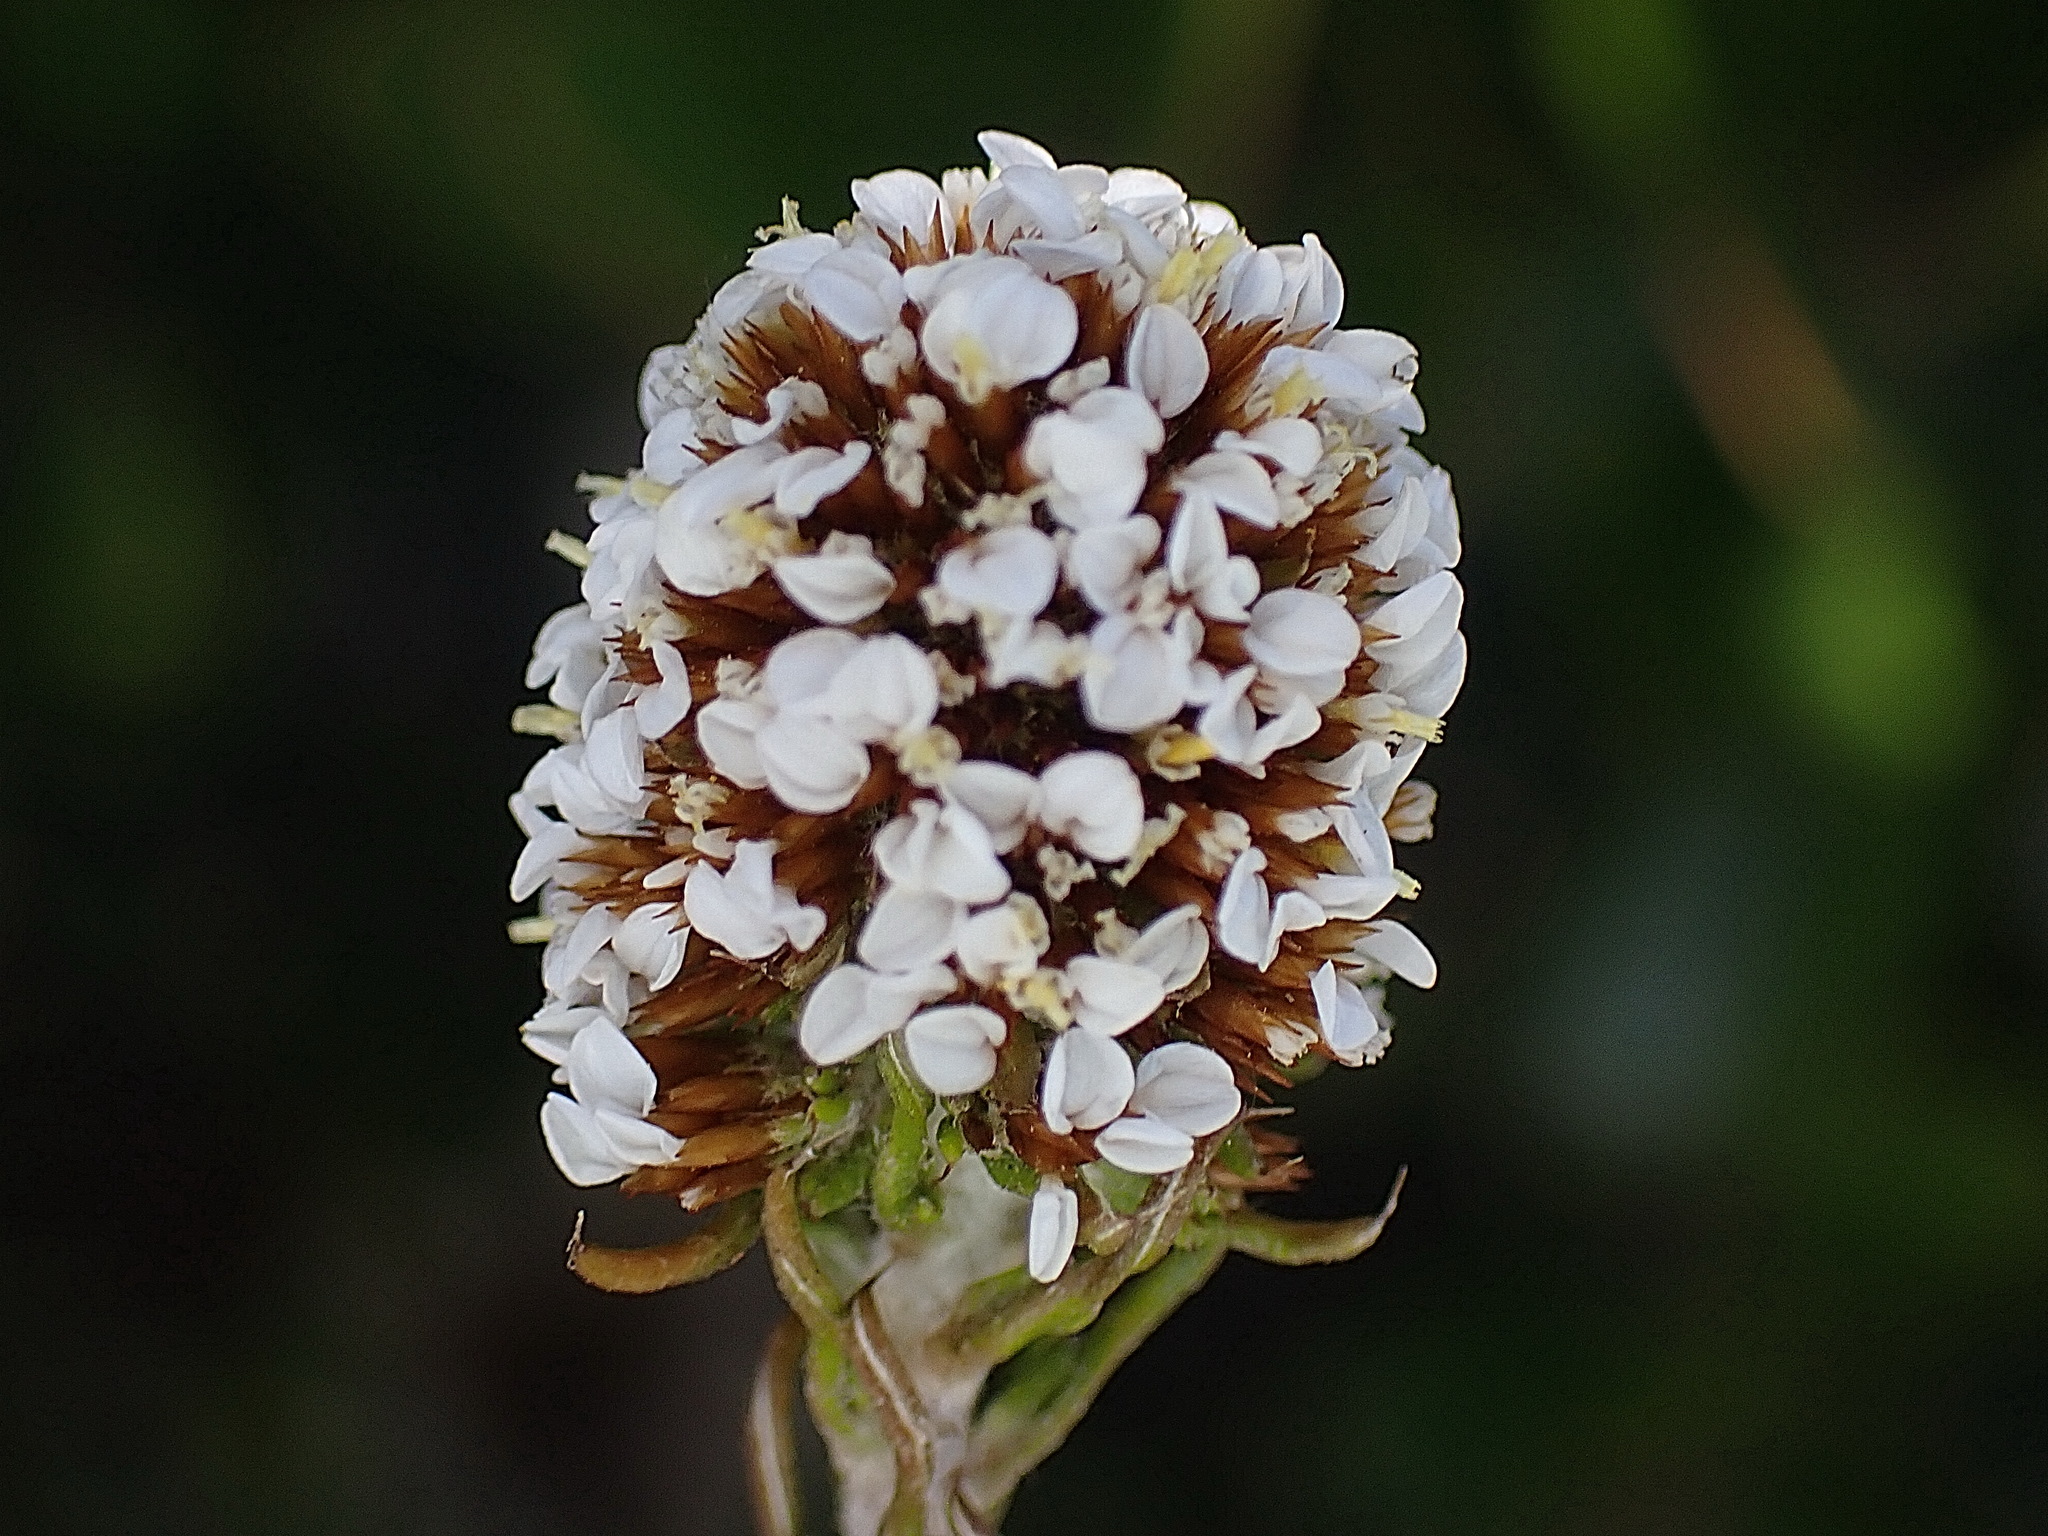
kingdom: Plantae
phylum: Tracheophyta
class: Magnoliopsida
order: Asterales
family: Asteraceae
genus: Disparago
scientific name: Disparago anomala
